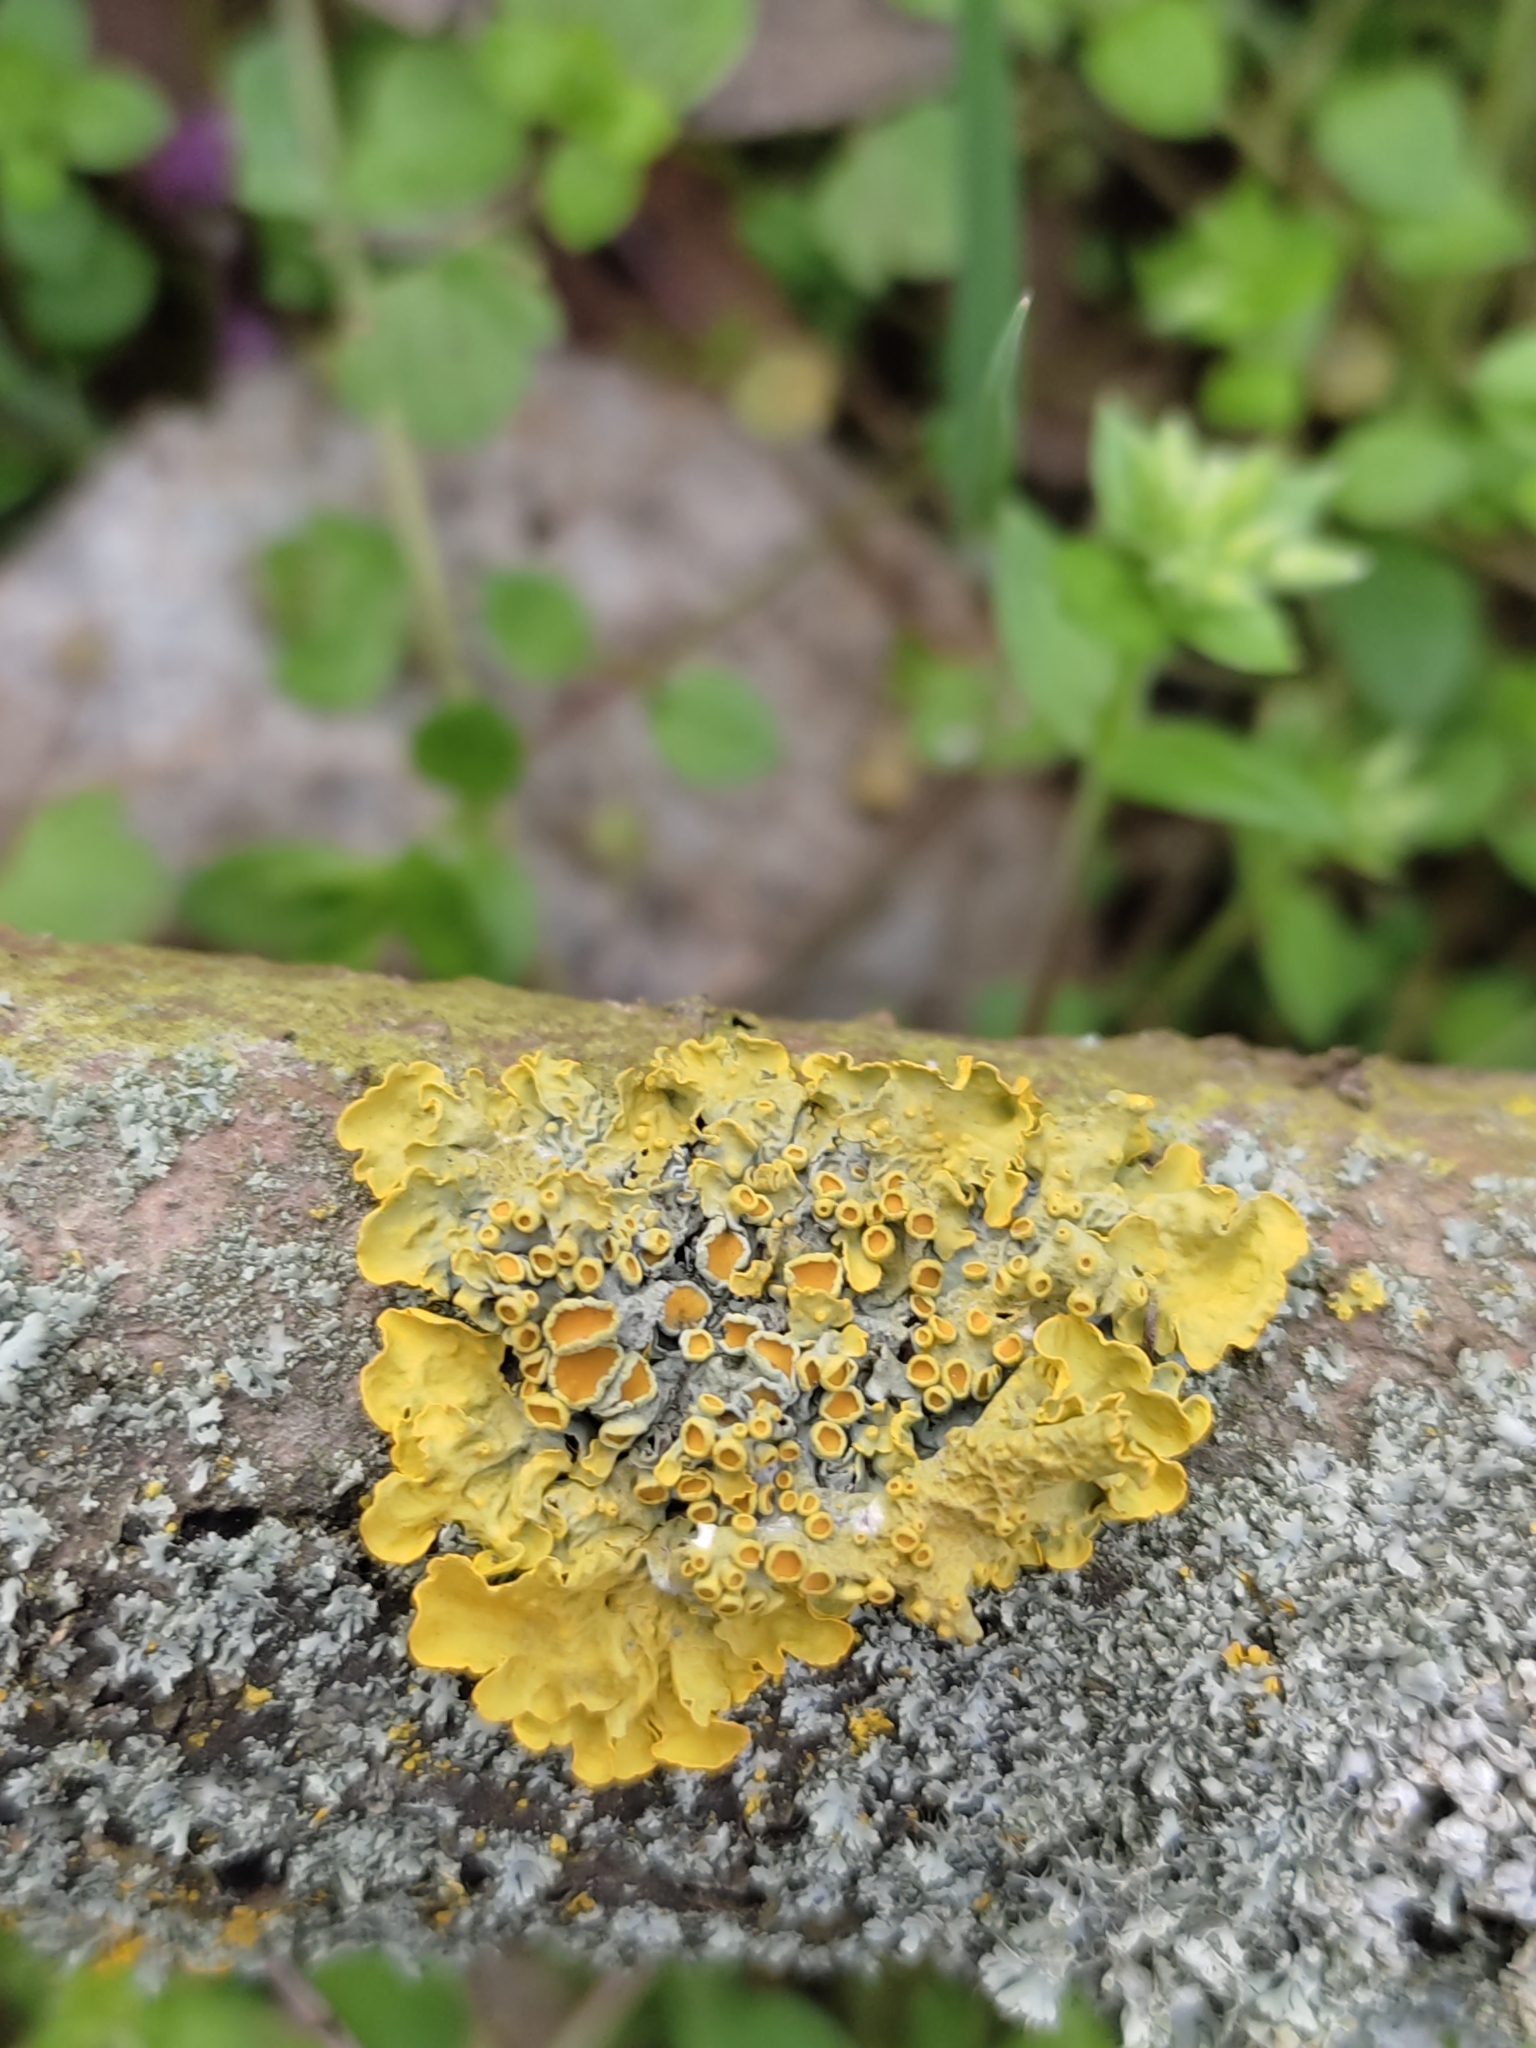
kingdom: Fungi
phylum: Ascomycota
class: Lecanoromycetes
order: Teloschistales
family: Teloschistaceae
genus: Xanthoria
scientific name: Xanthoria parietina
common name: Common orange lichen
